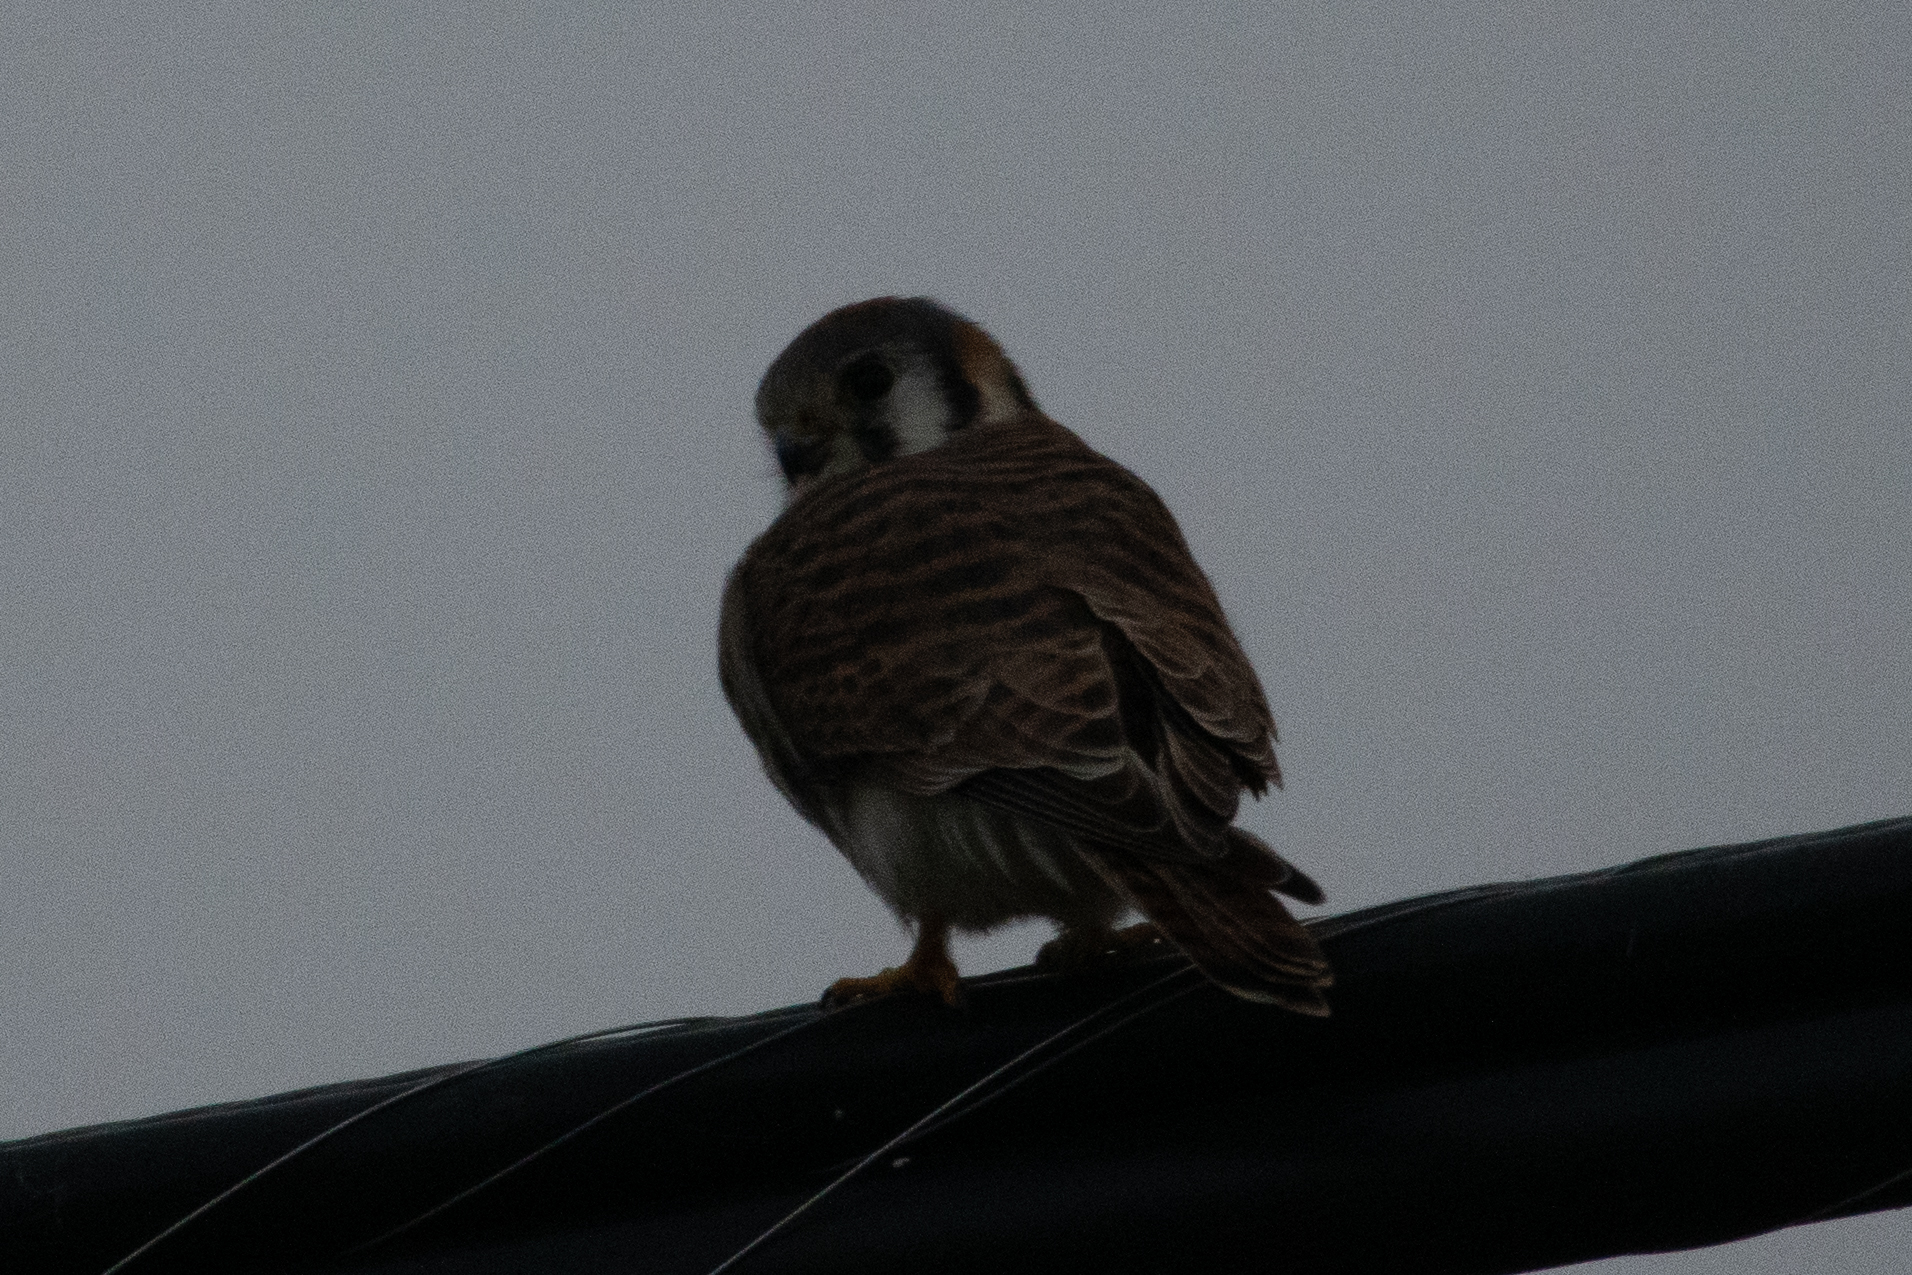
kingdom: Animalia
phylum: Chordata
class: Aves
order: Falconiformes
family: Falconidae
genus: Falco
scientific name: Falco sparverius
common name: American kestrel
